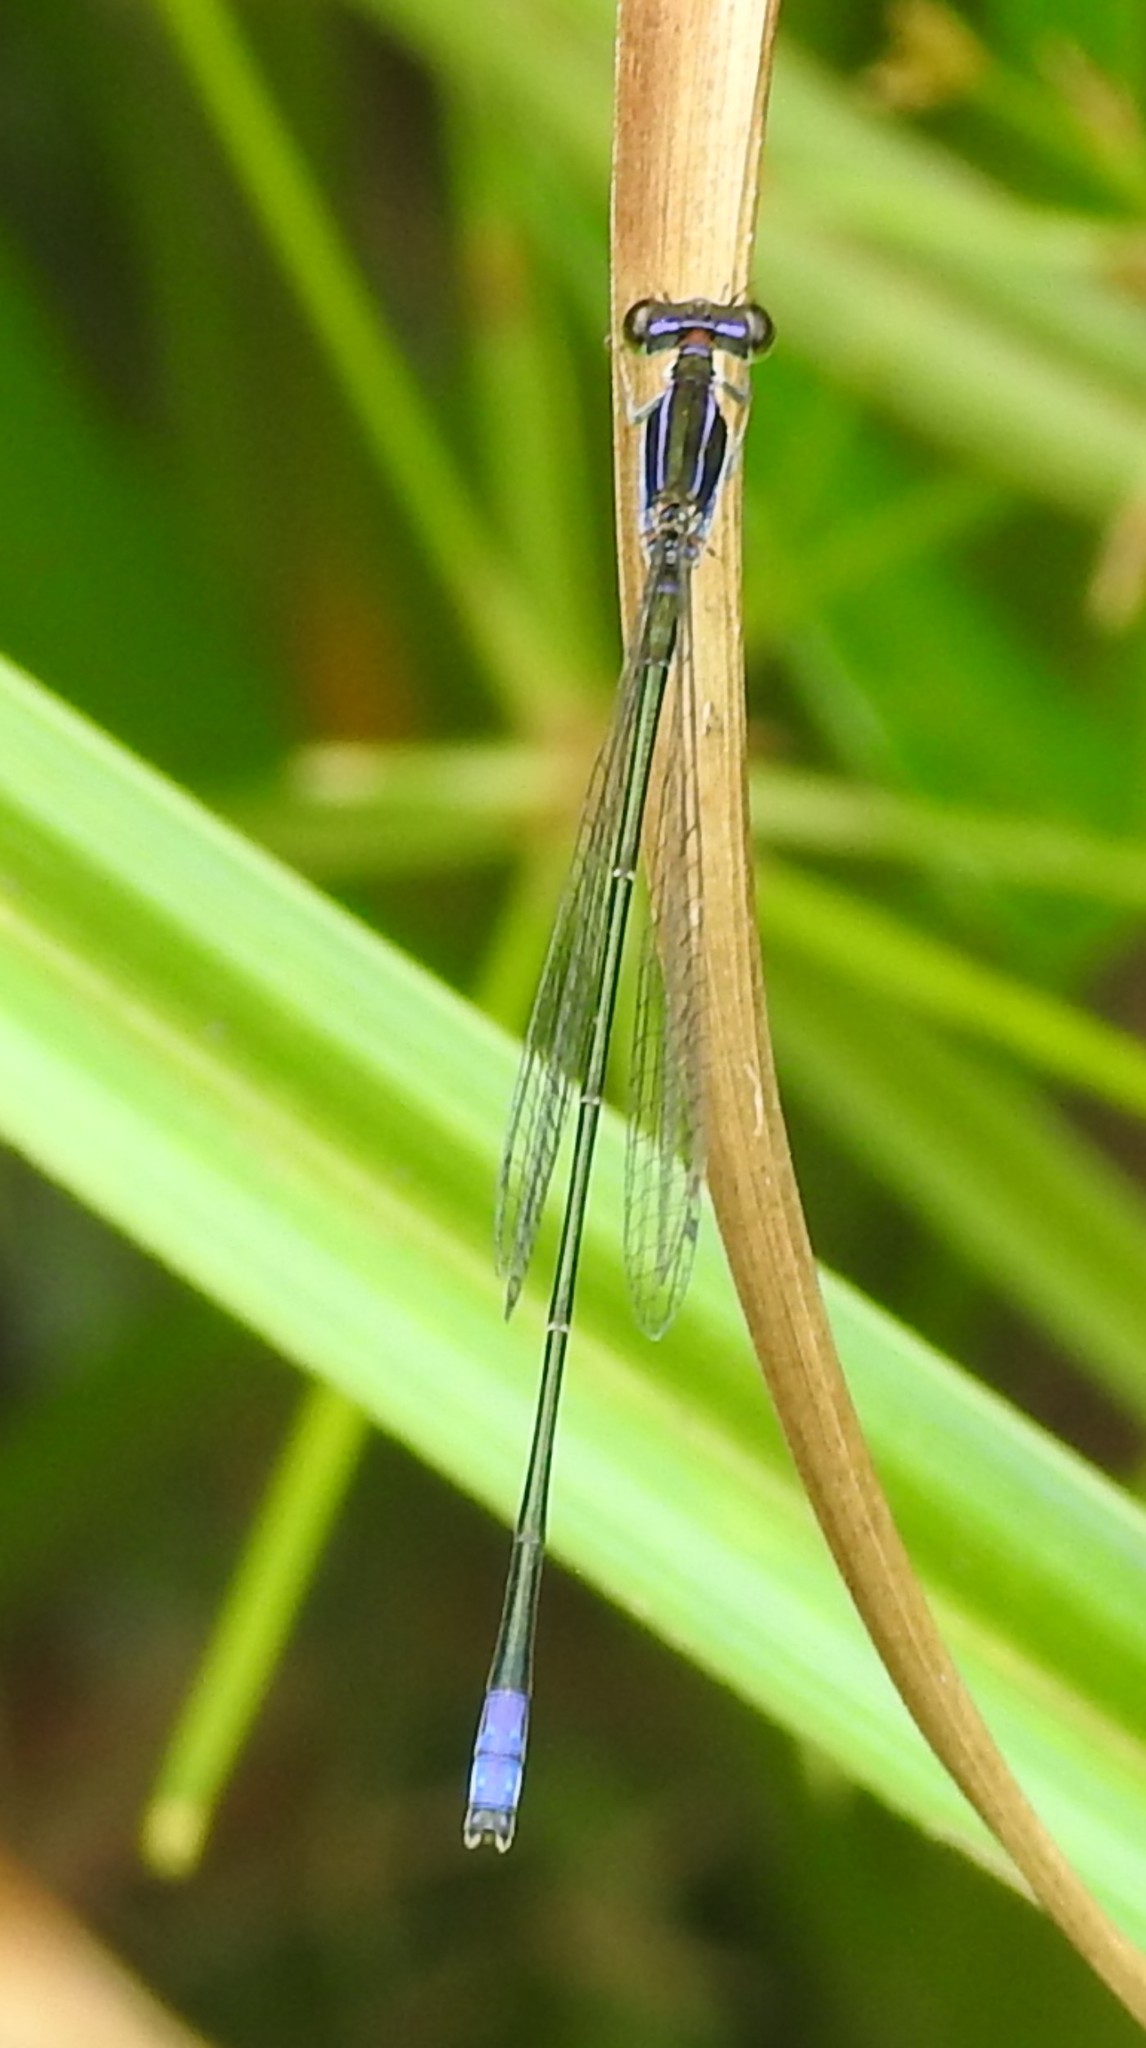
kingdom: Animalia
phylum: Arthropoda
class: Insecta
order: Odonata
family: Coenagrionidae
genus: Aciagrion
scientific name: Aciagrion approximans
